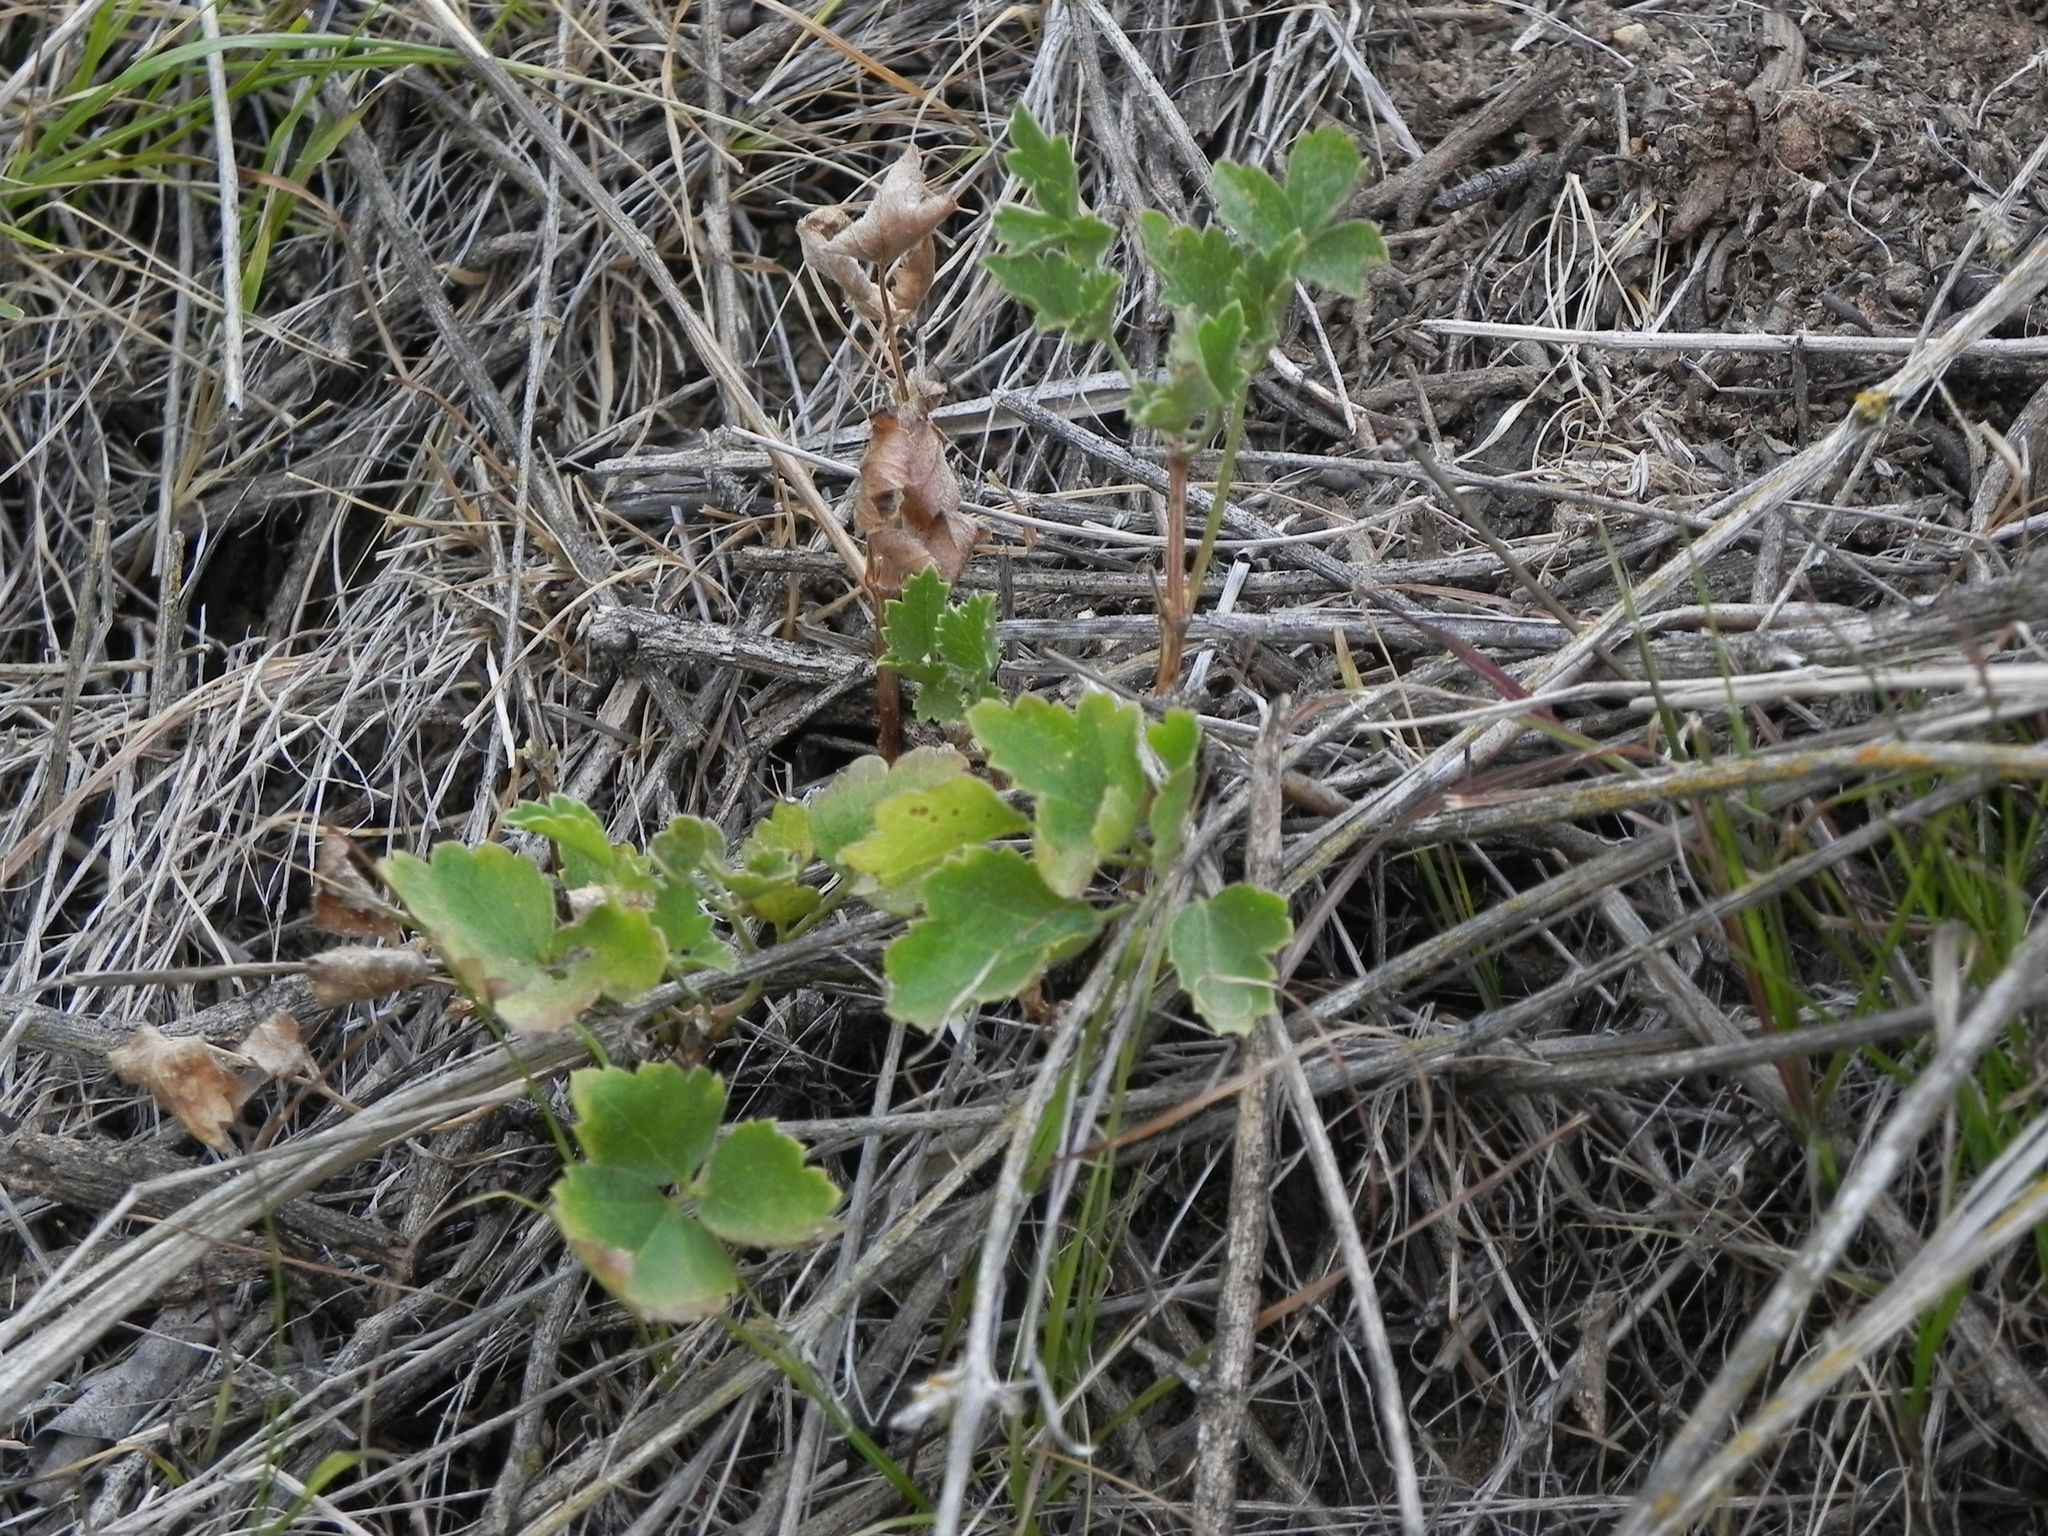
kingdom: Plantae
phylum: Tracheophyta
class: Magnoliopsida
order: Ranunculales
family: Ranunculaceae
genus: Clematis
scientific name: Clematis pauciflora
